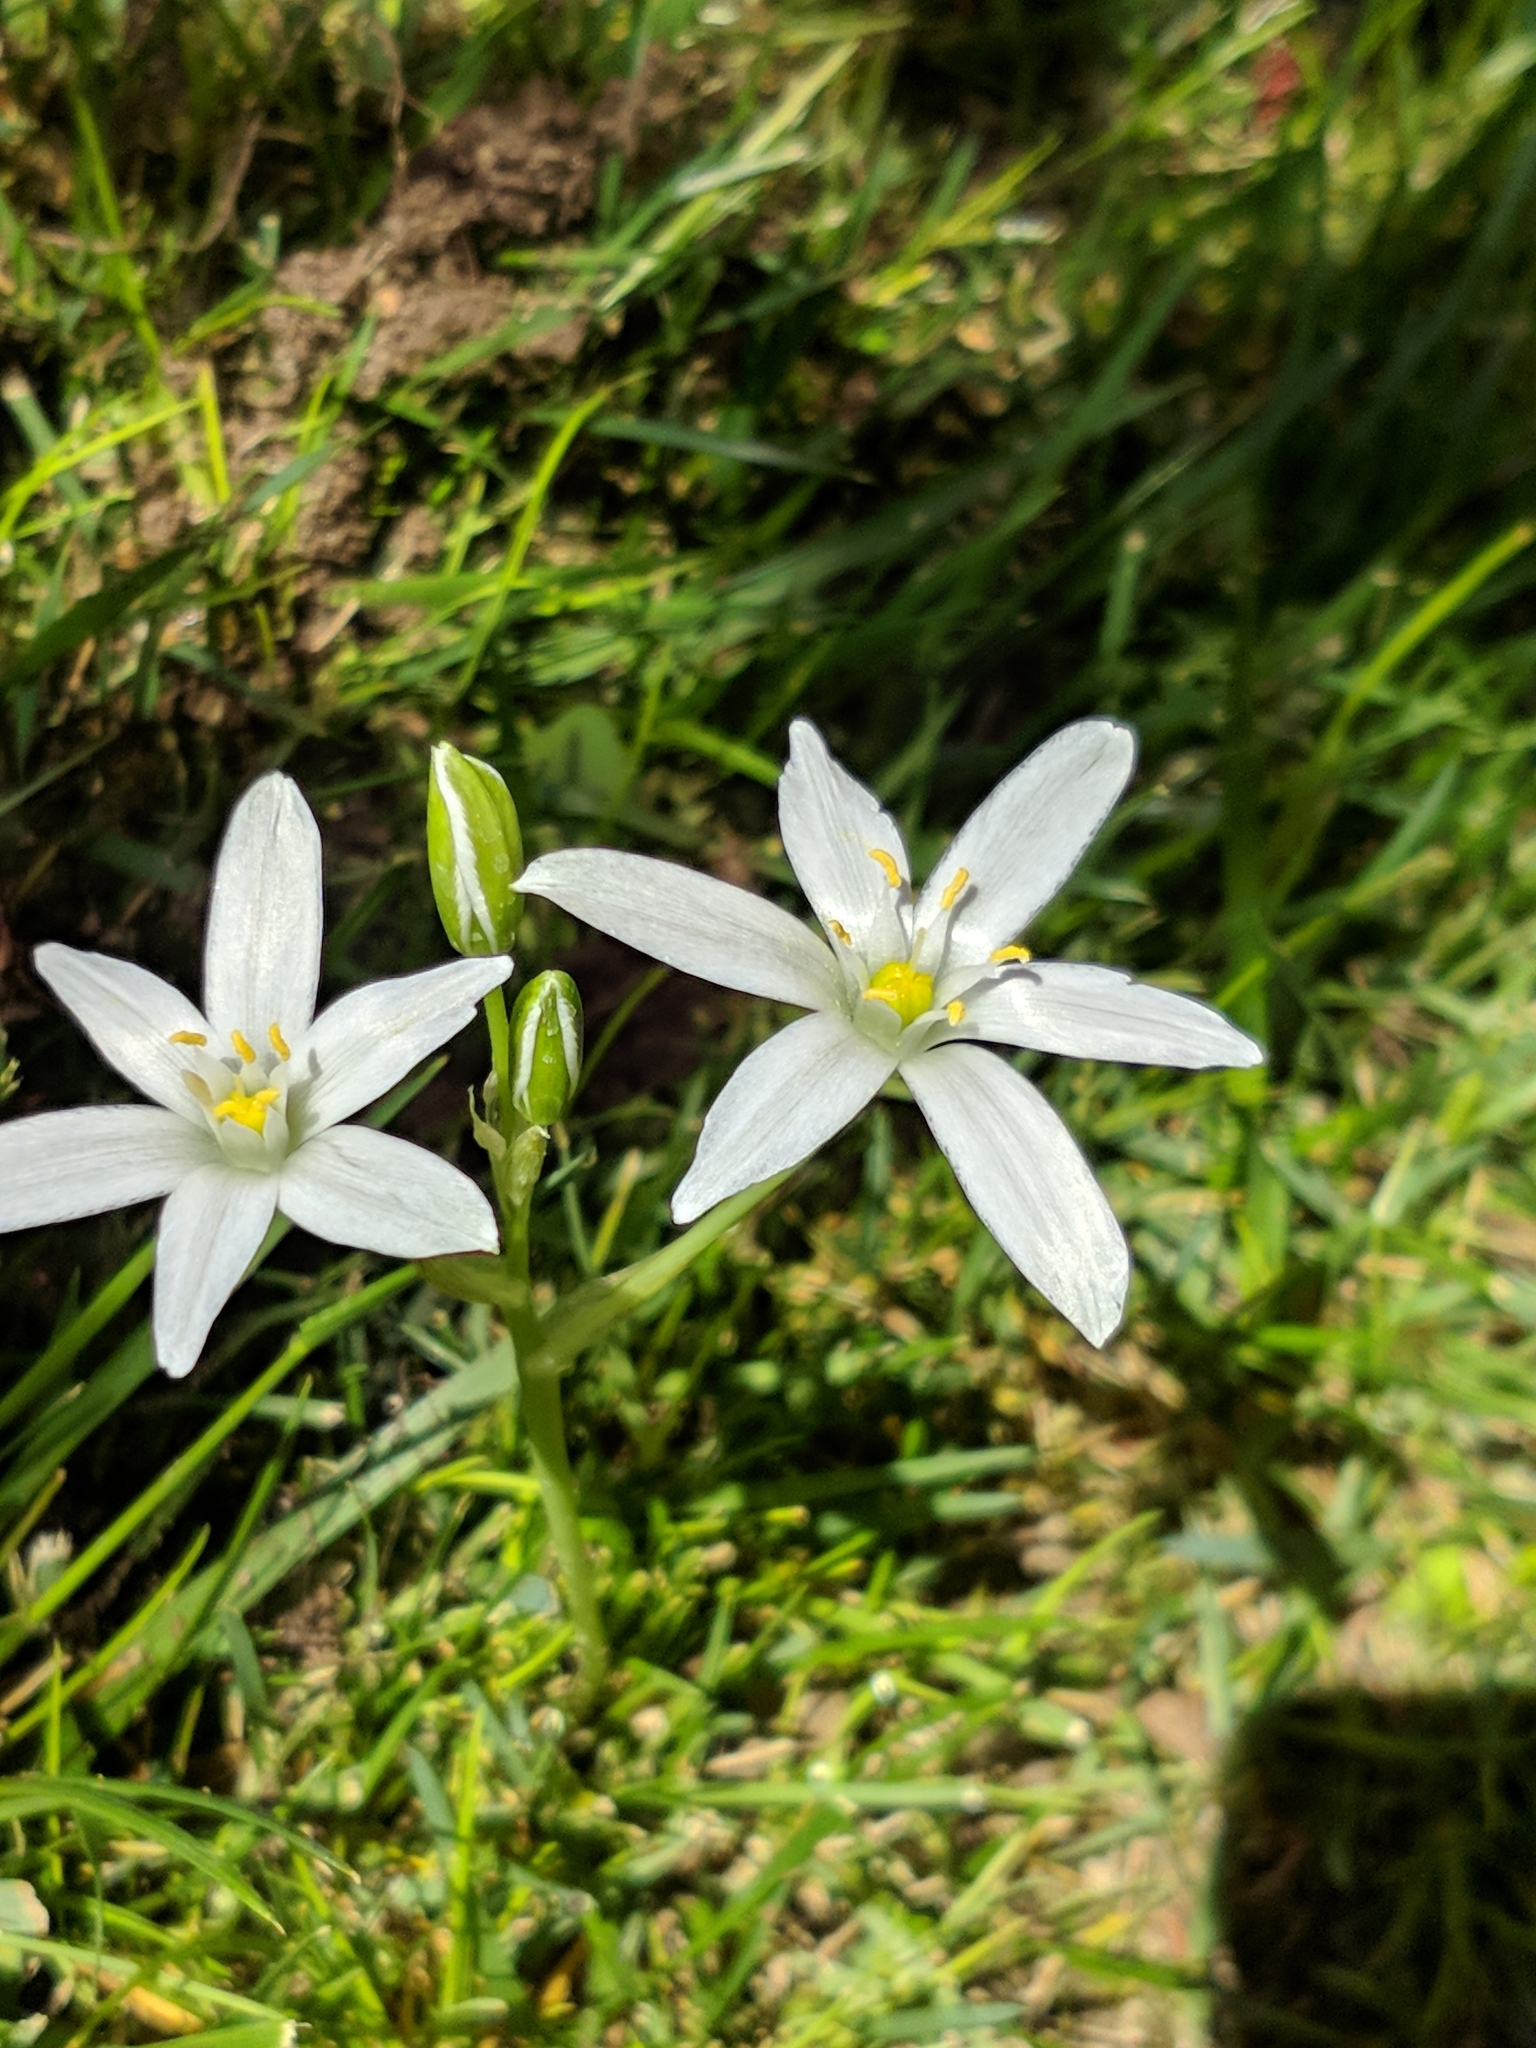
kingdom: Plantae
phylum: Tracheophyta
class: Liliopsida
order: Asparagales
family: Asparagaceae
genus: Ornithogalum
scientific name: Ornithogalum umbellatum
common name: Garden star-of-bethlehem
